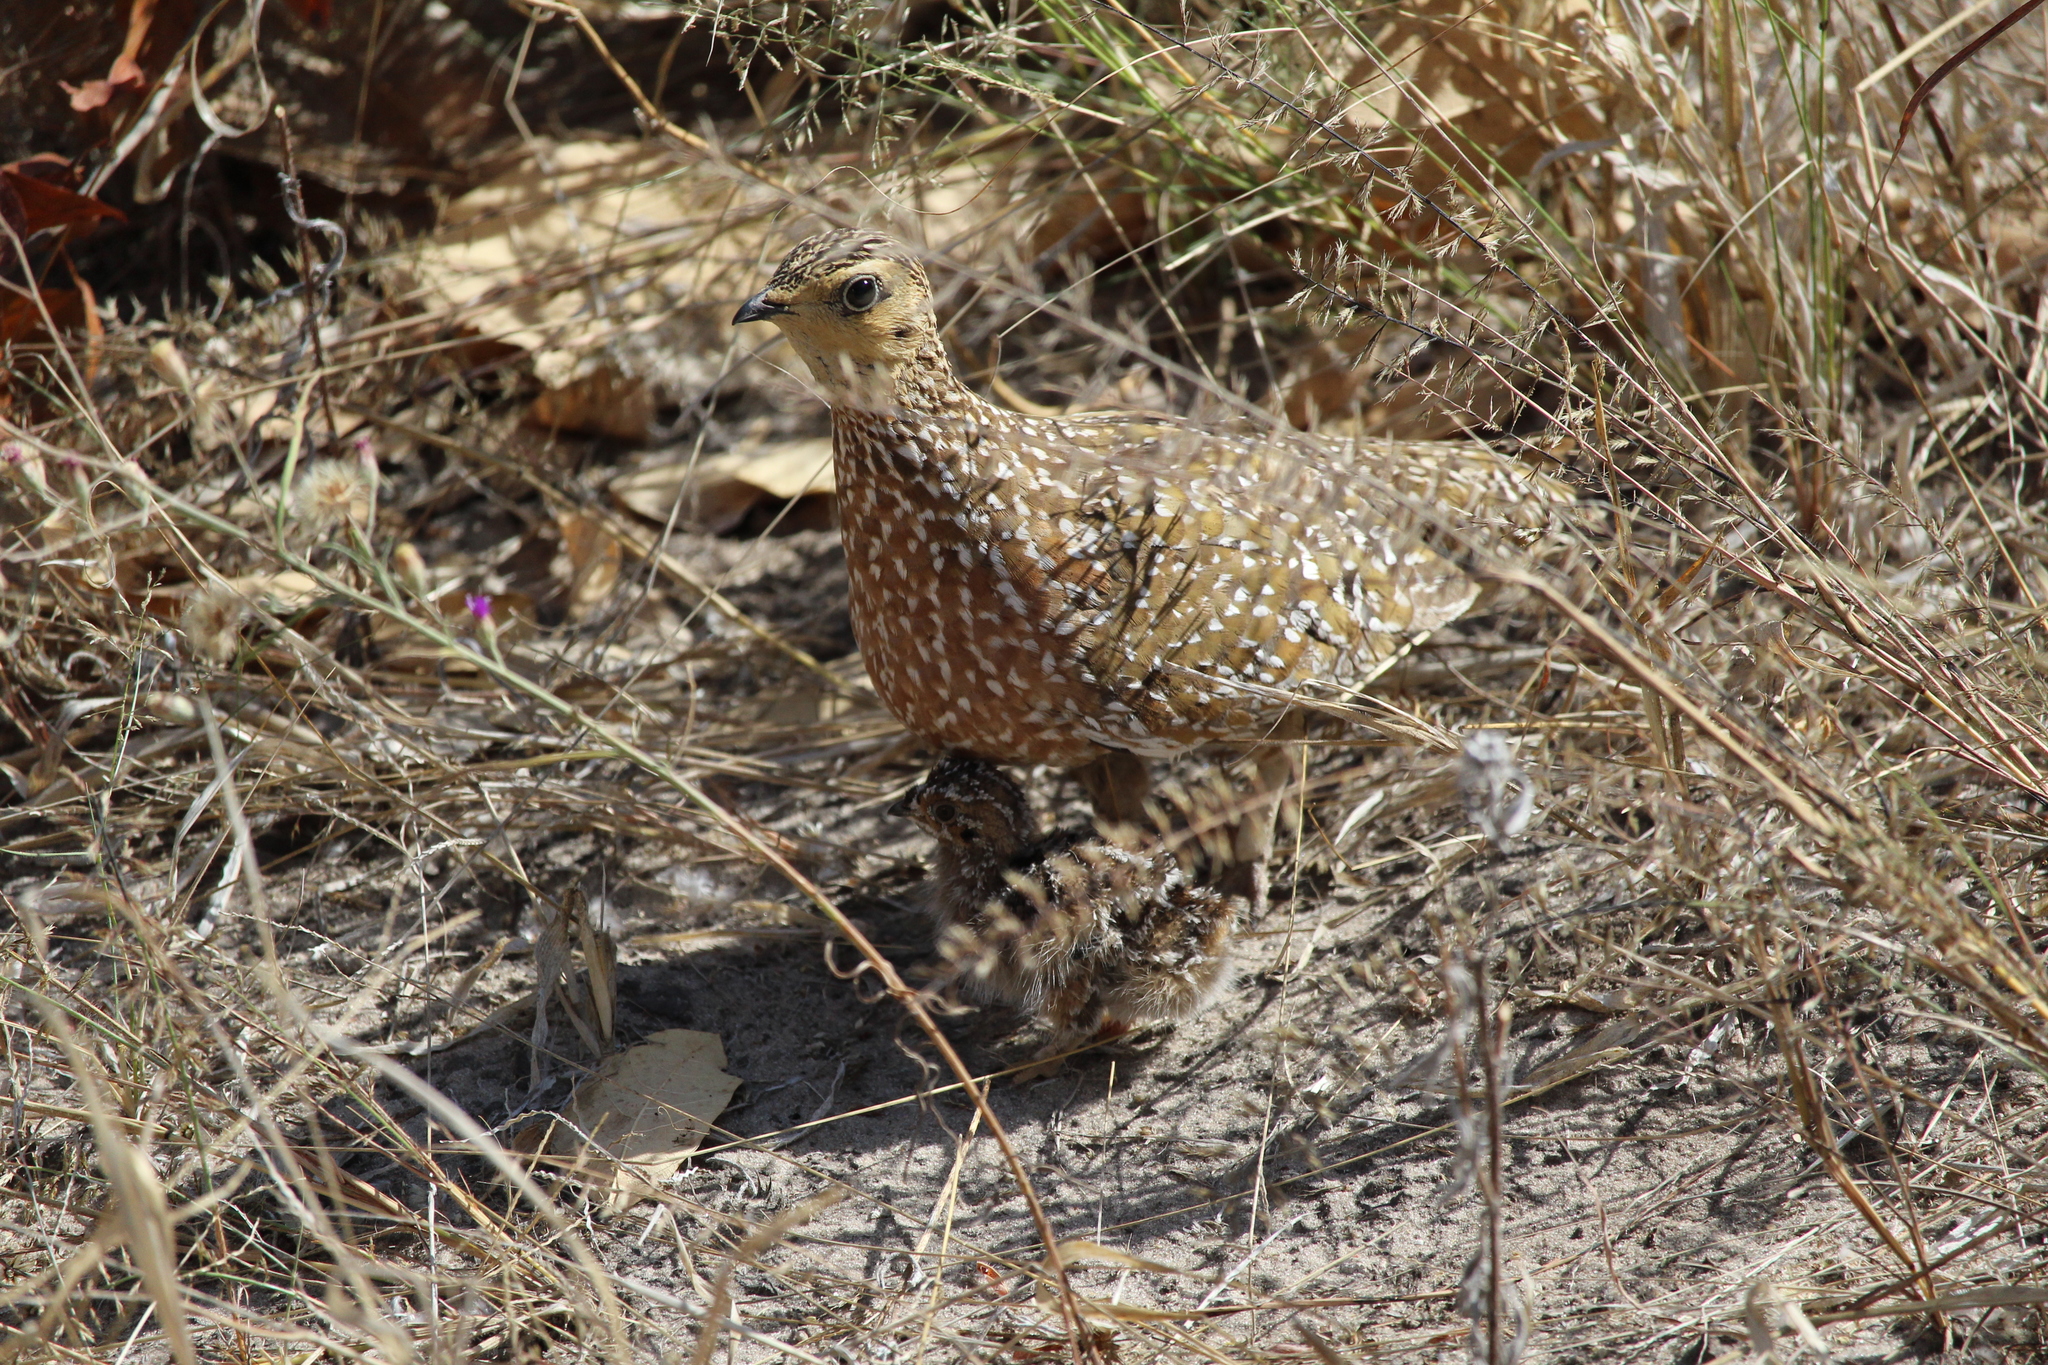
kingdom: Animalia
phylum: Chordata
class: Aves
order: Pteroclidiformes
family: Pteroclididae
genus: Pterocles
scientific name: Pterocles burchelli
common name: Burchell's sandgrouse
